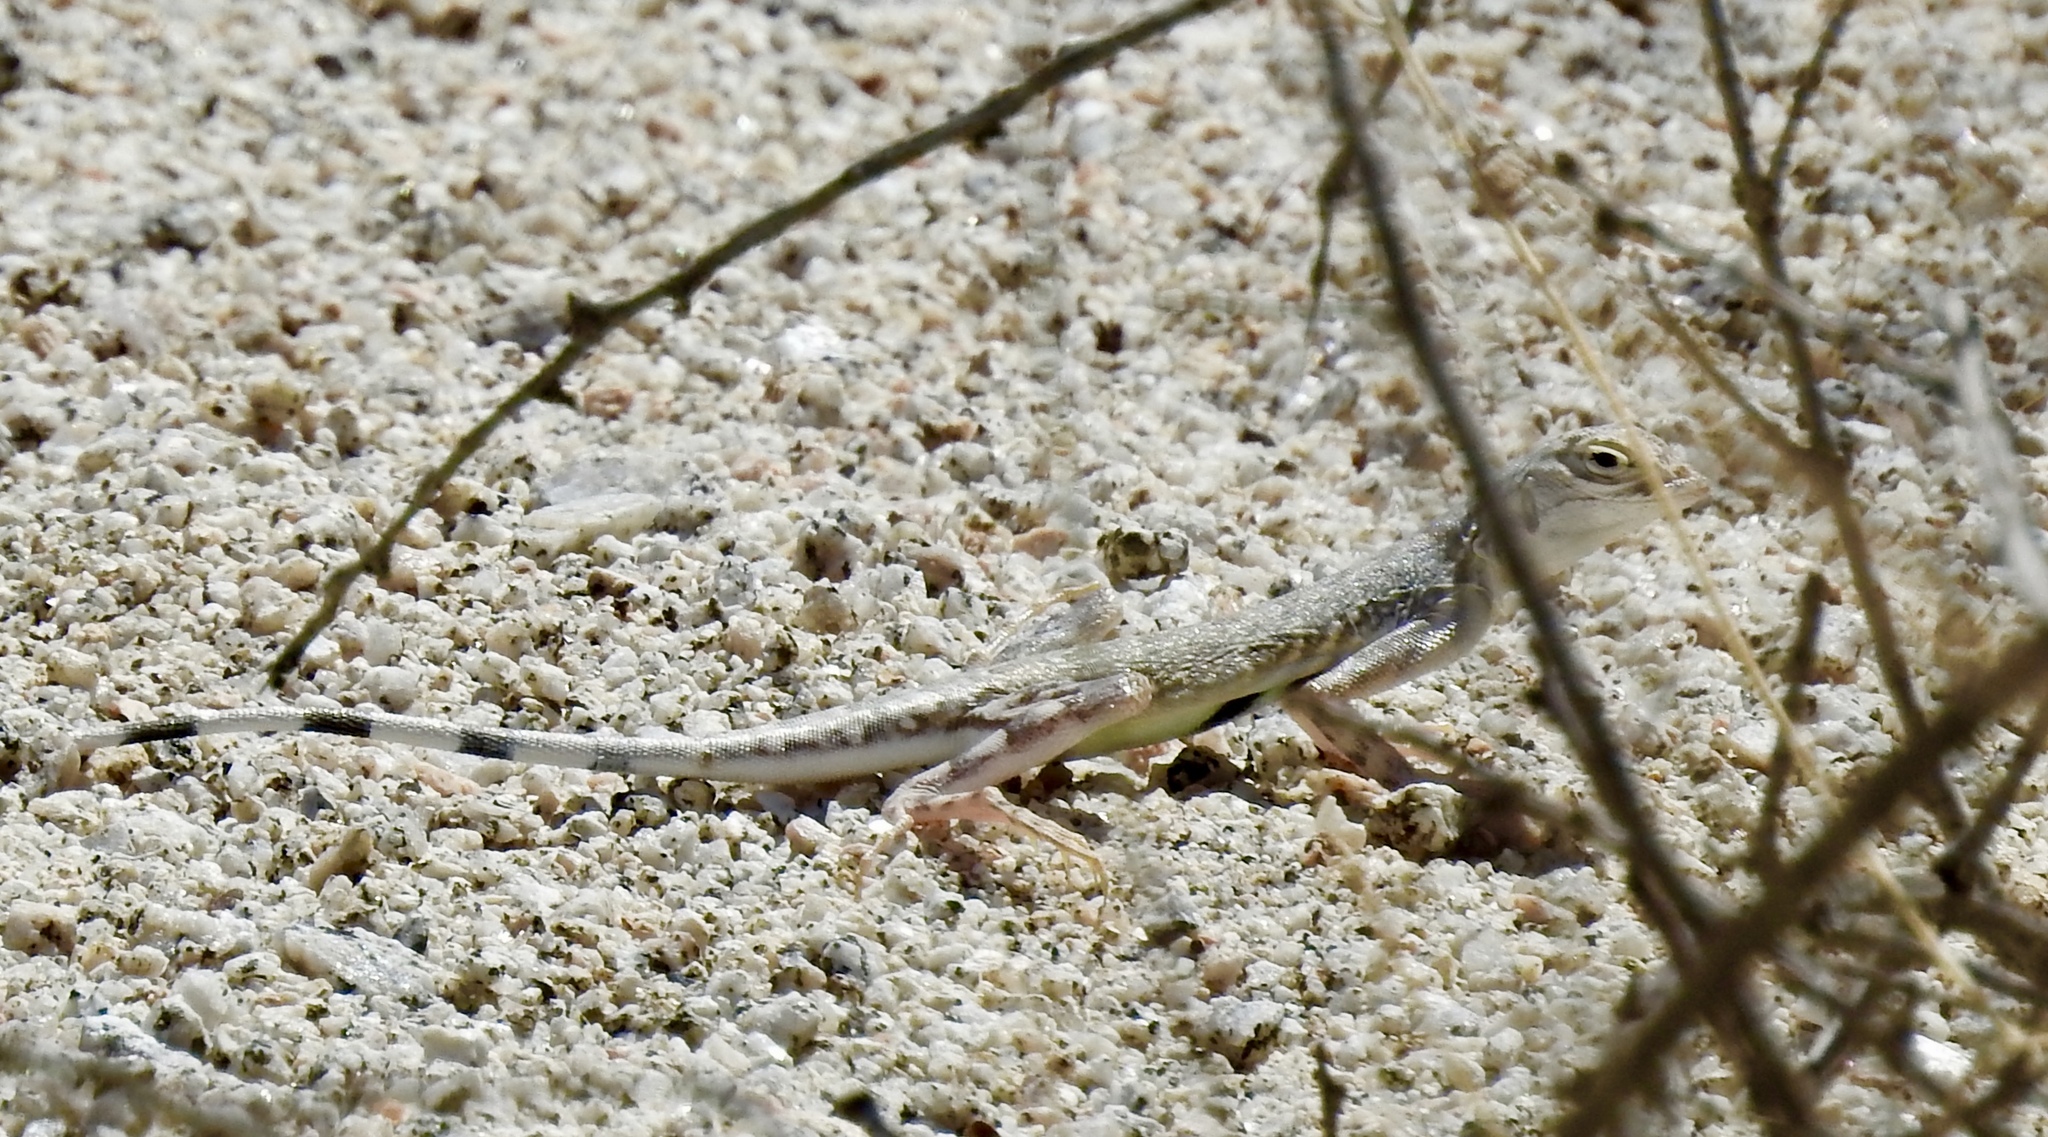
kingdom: Animalia
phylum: Chordata
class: Squamata
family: Phrynosomatidae
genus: Callisaurus
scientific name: Callisaurus draconoides
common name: Zebra-tailed lizard
